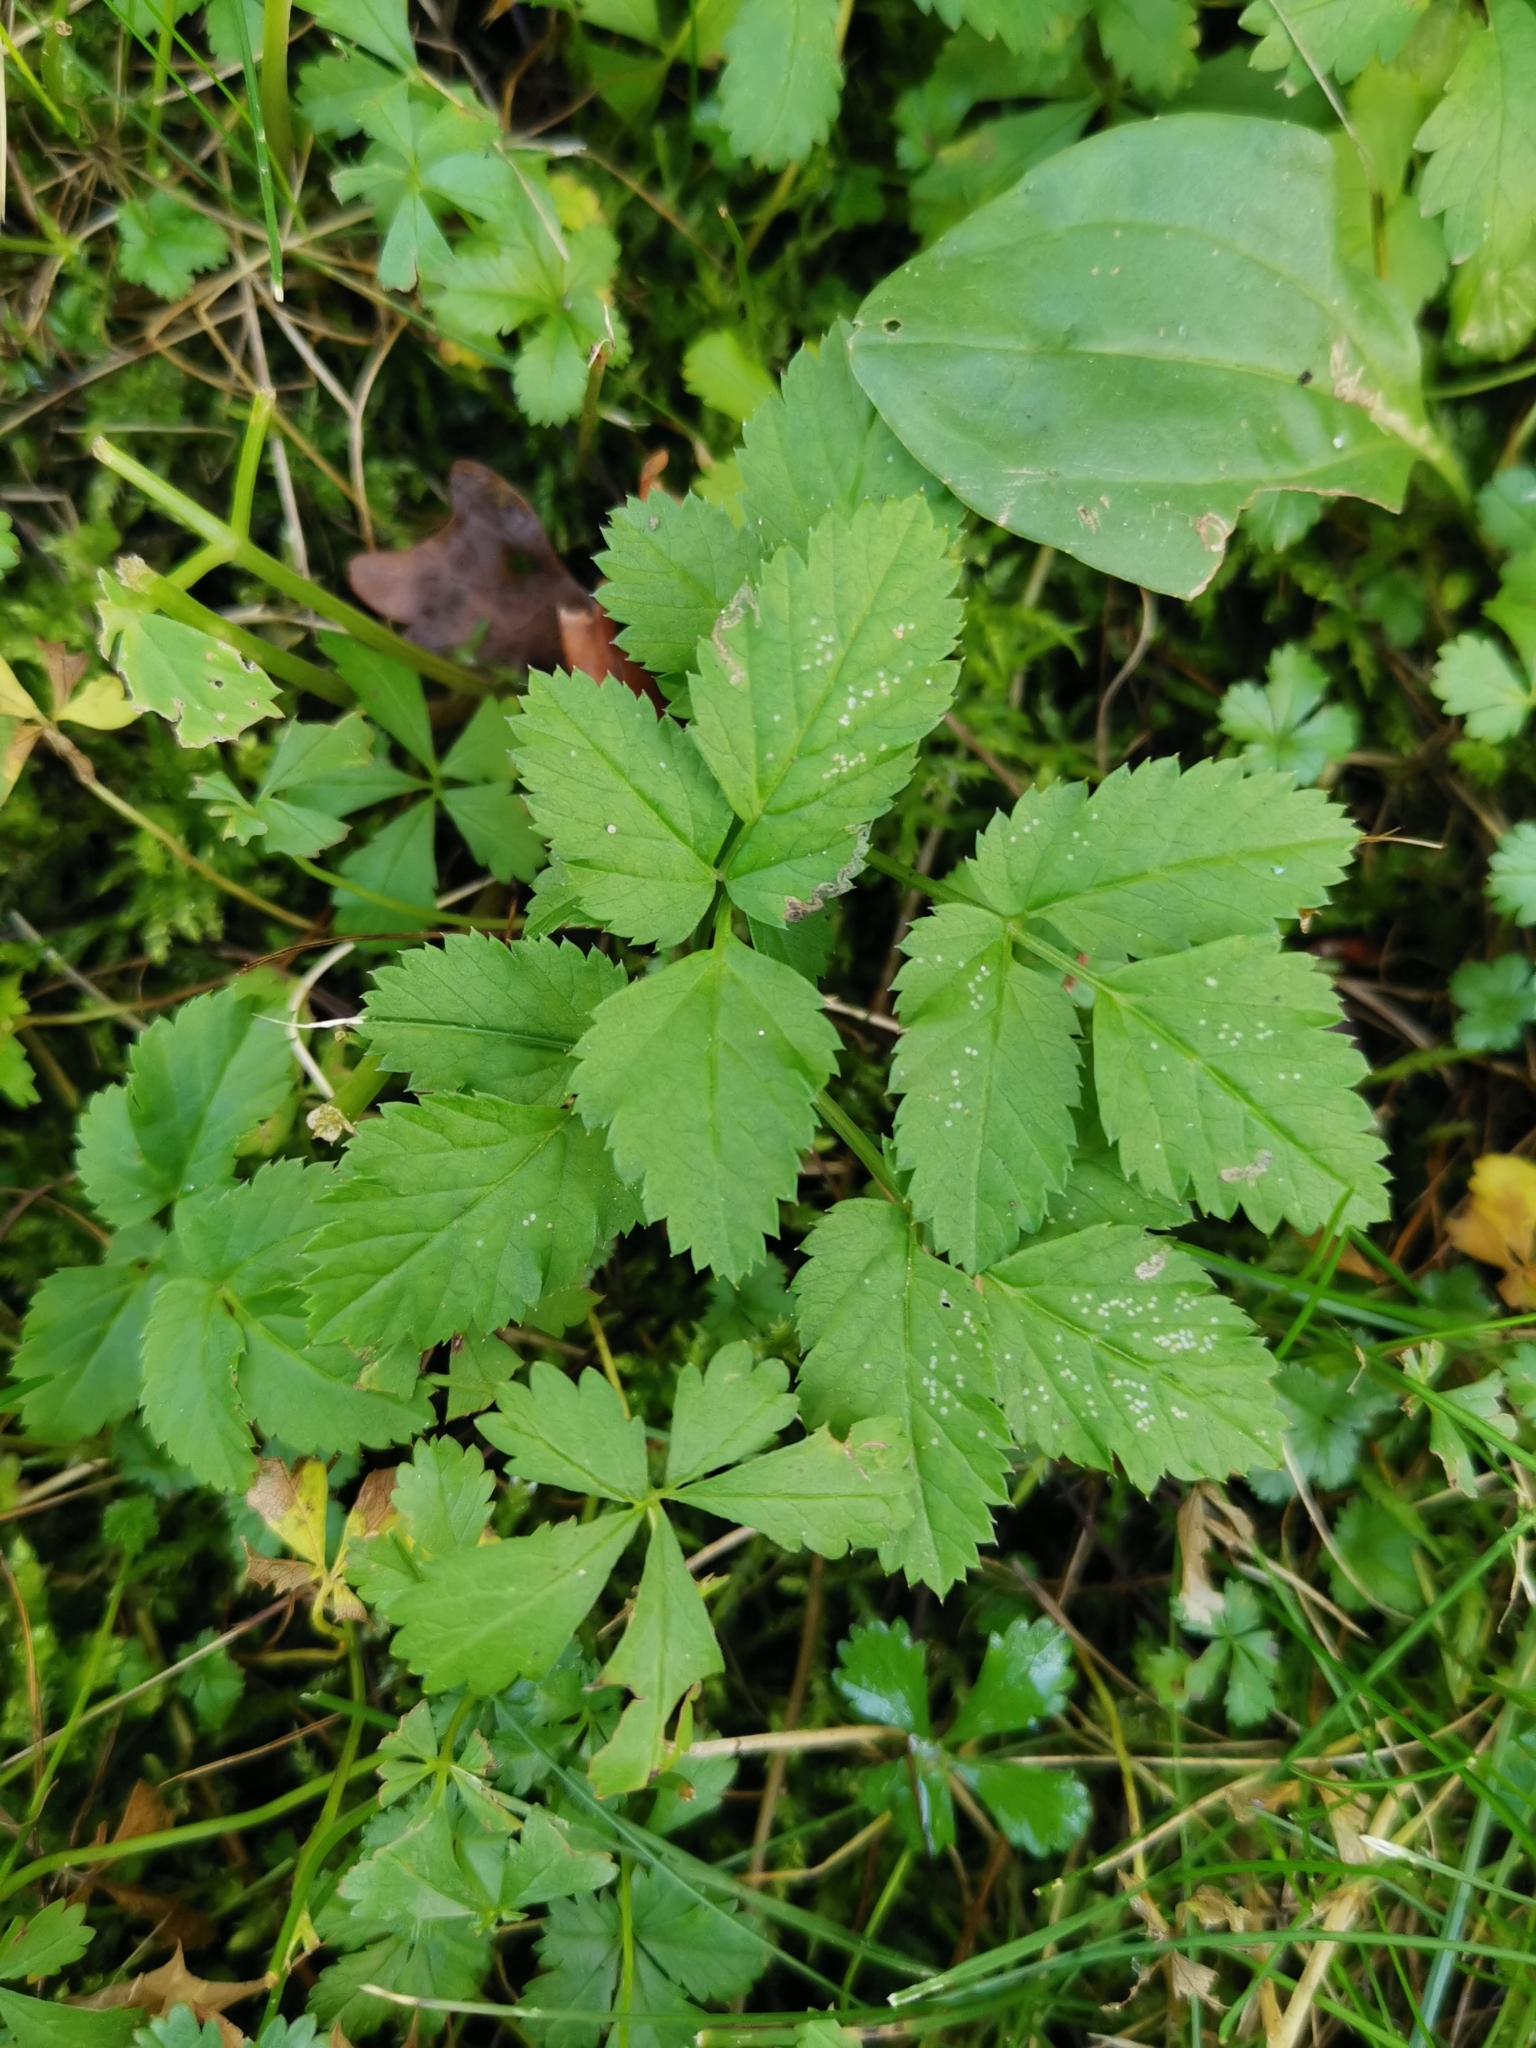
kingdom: Plantae
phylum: Tracheophyta
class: Magnoliopsida
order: Apiales
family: Apiaceae
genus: Aegopodium
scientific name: Aegopodium podagraria
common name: Ground-elder
